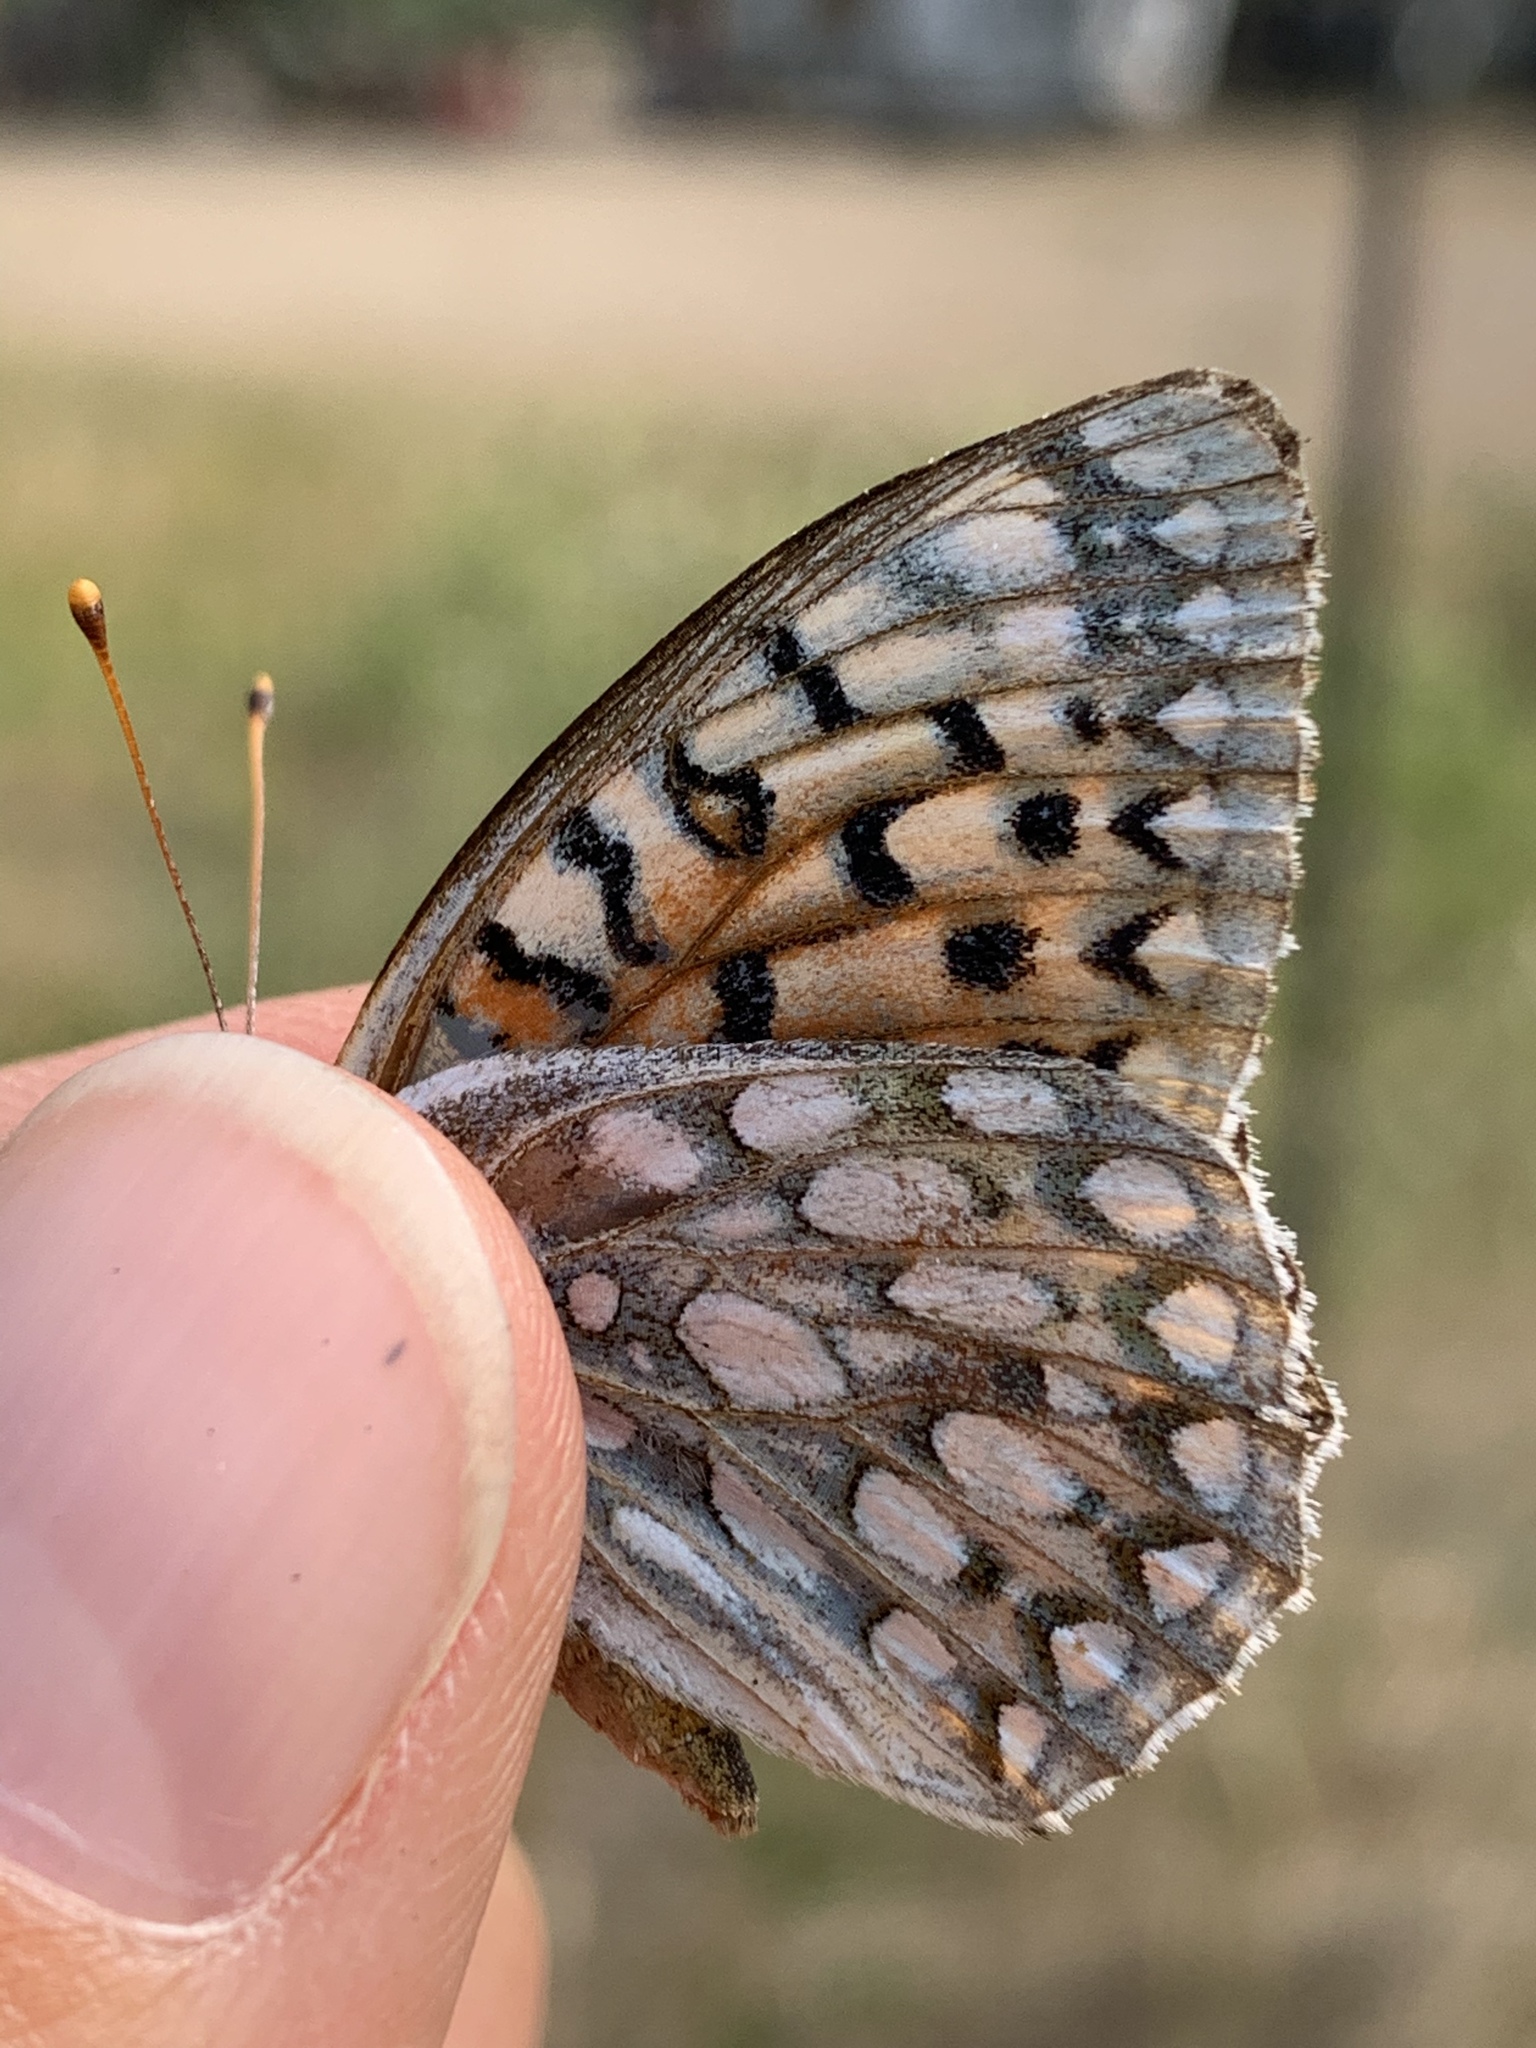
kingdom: Animalia
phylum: Arthropoda
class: Insecta
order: Lepidoptera
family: Nymphalidae
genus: Speyeria
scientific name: Speyeria callippe
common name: Callippe fritillary
